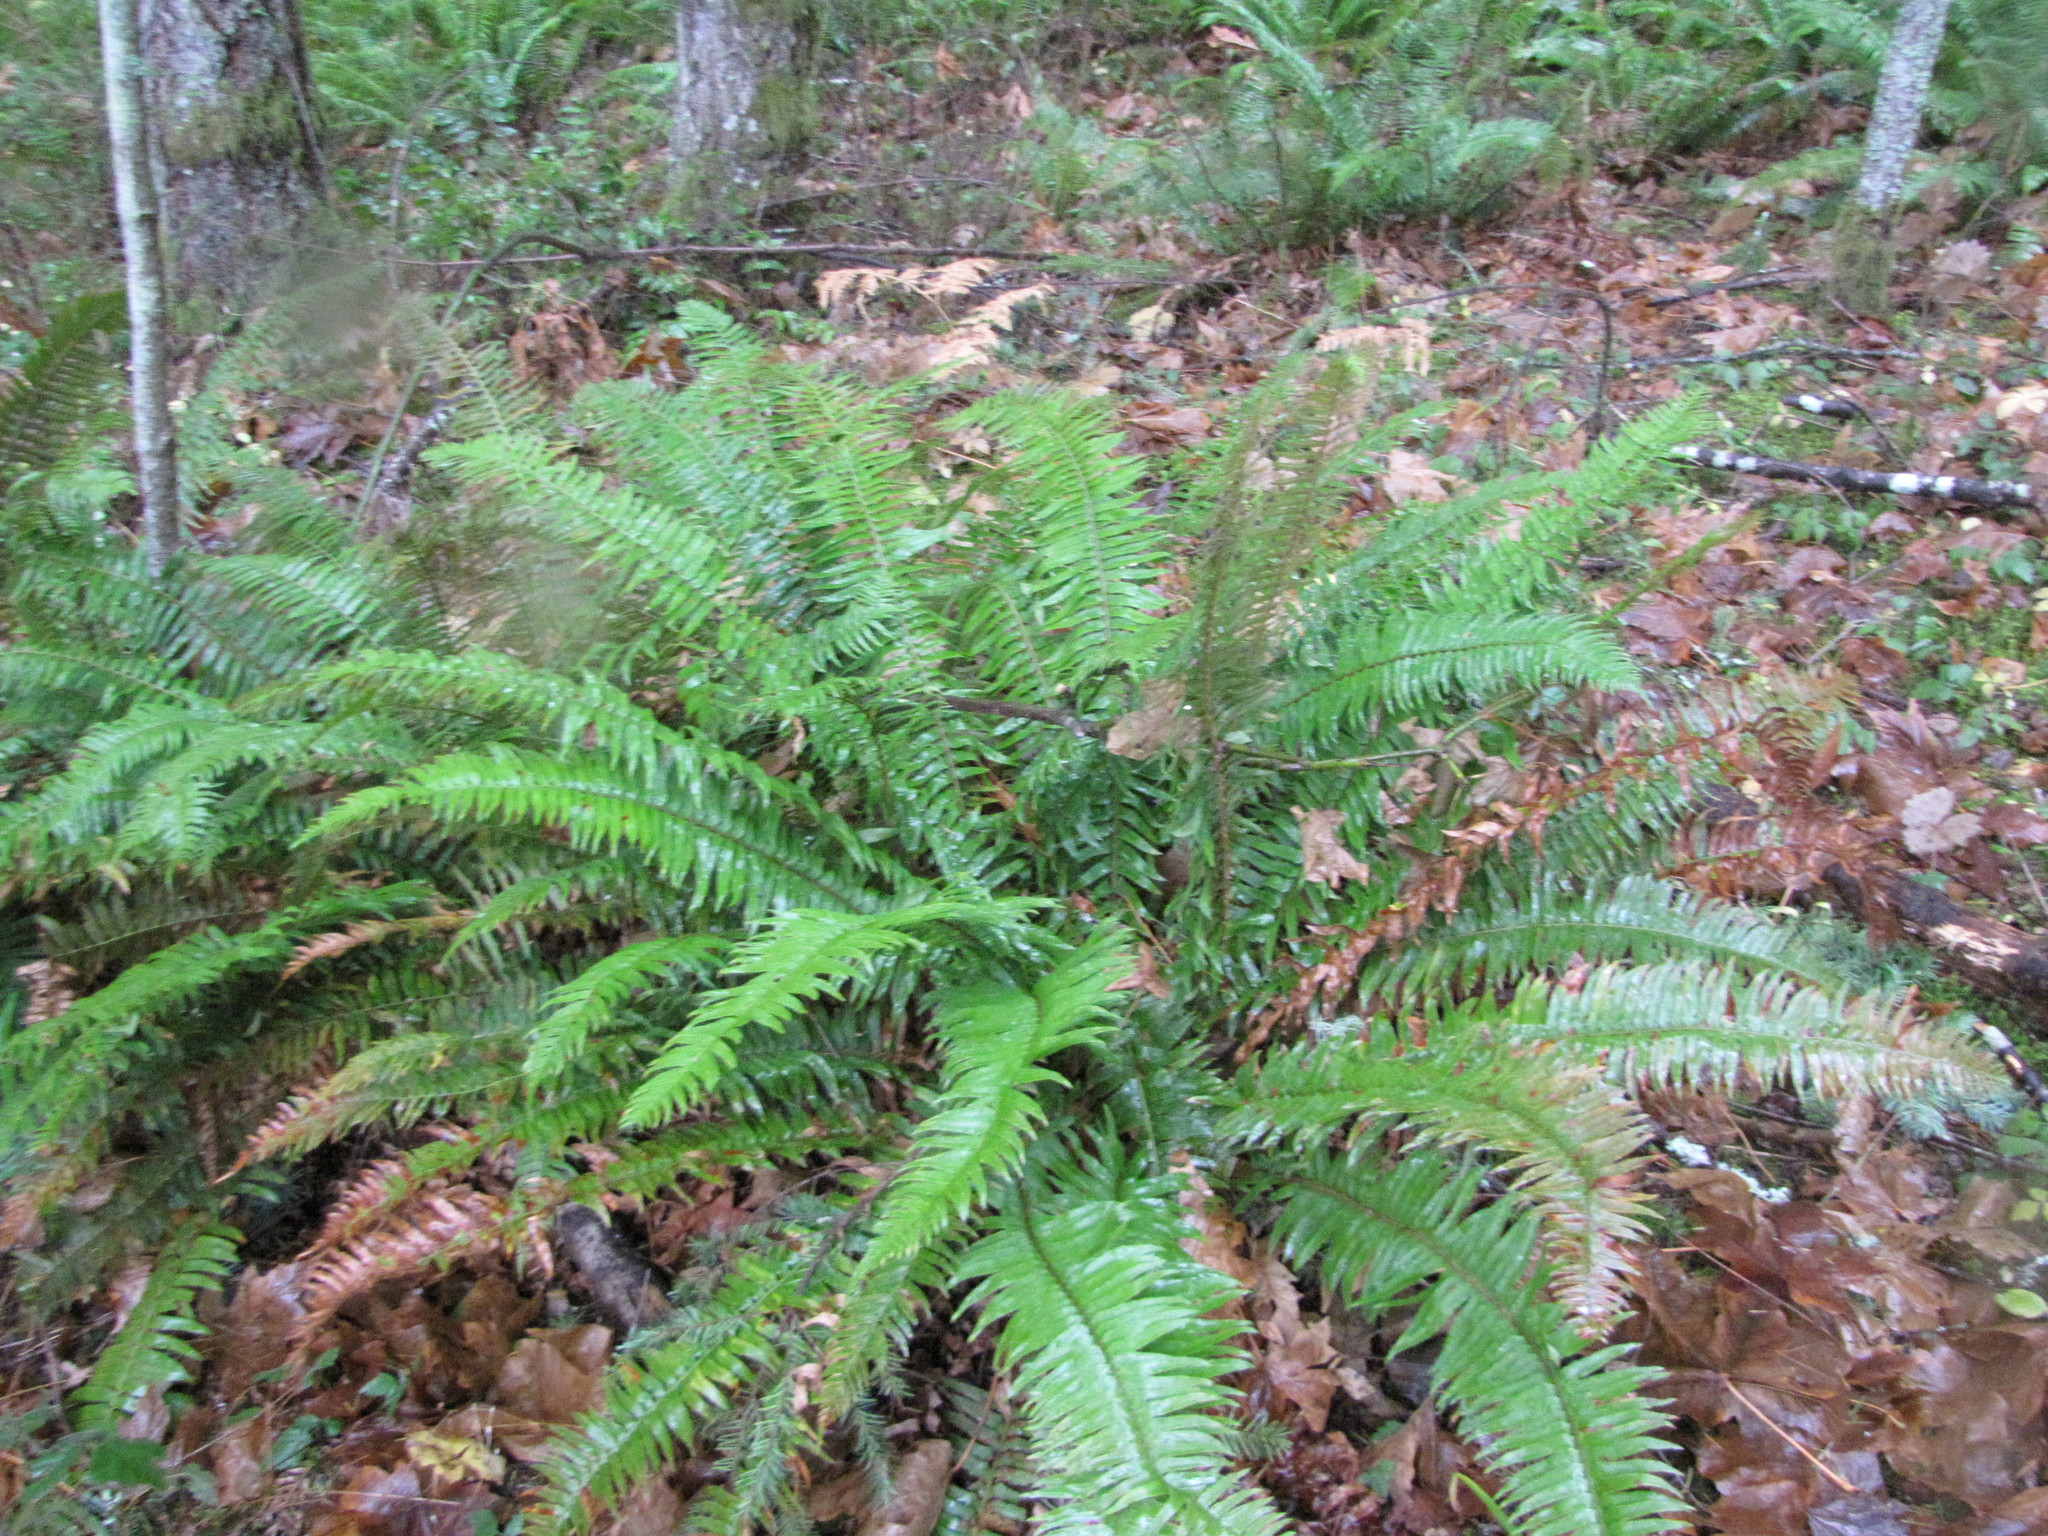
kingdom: Plantae
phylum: Tracheophyta
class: Polypodiopsida
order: Polypodiales
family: Dryopteridaceae
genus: Polystichum
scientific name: Polystichum munitum
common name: Western sword-fern
